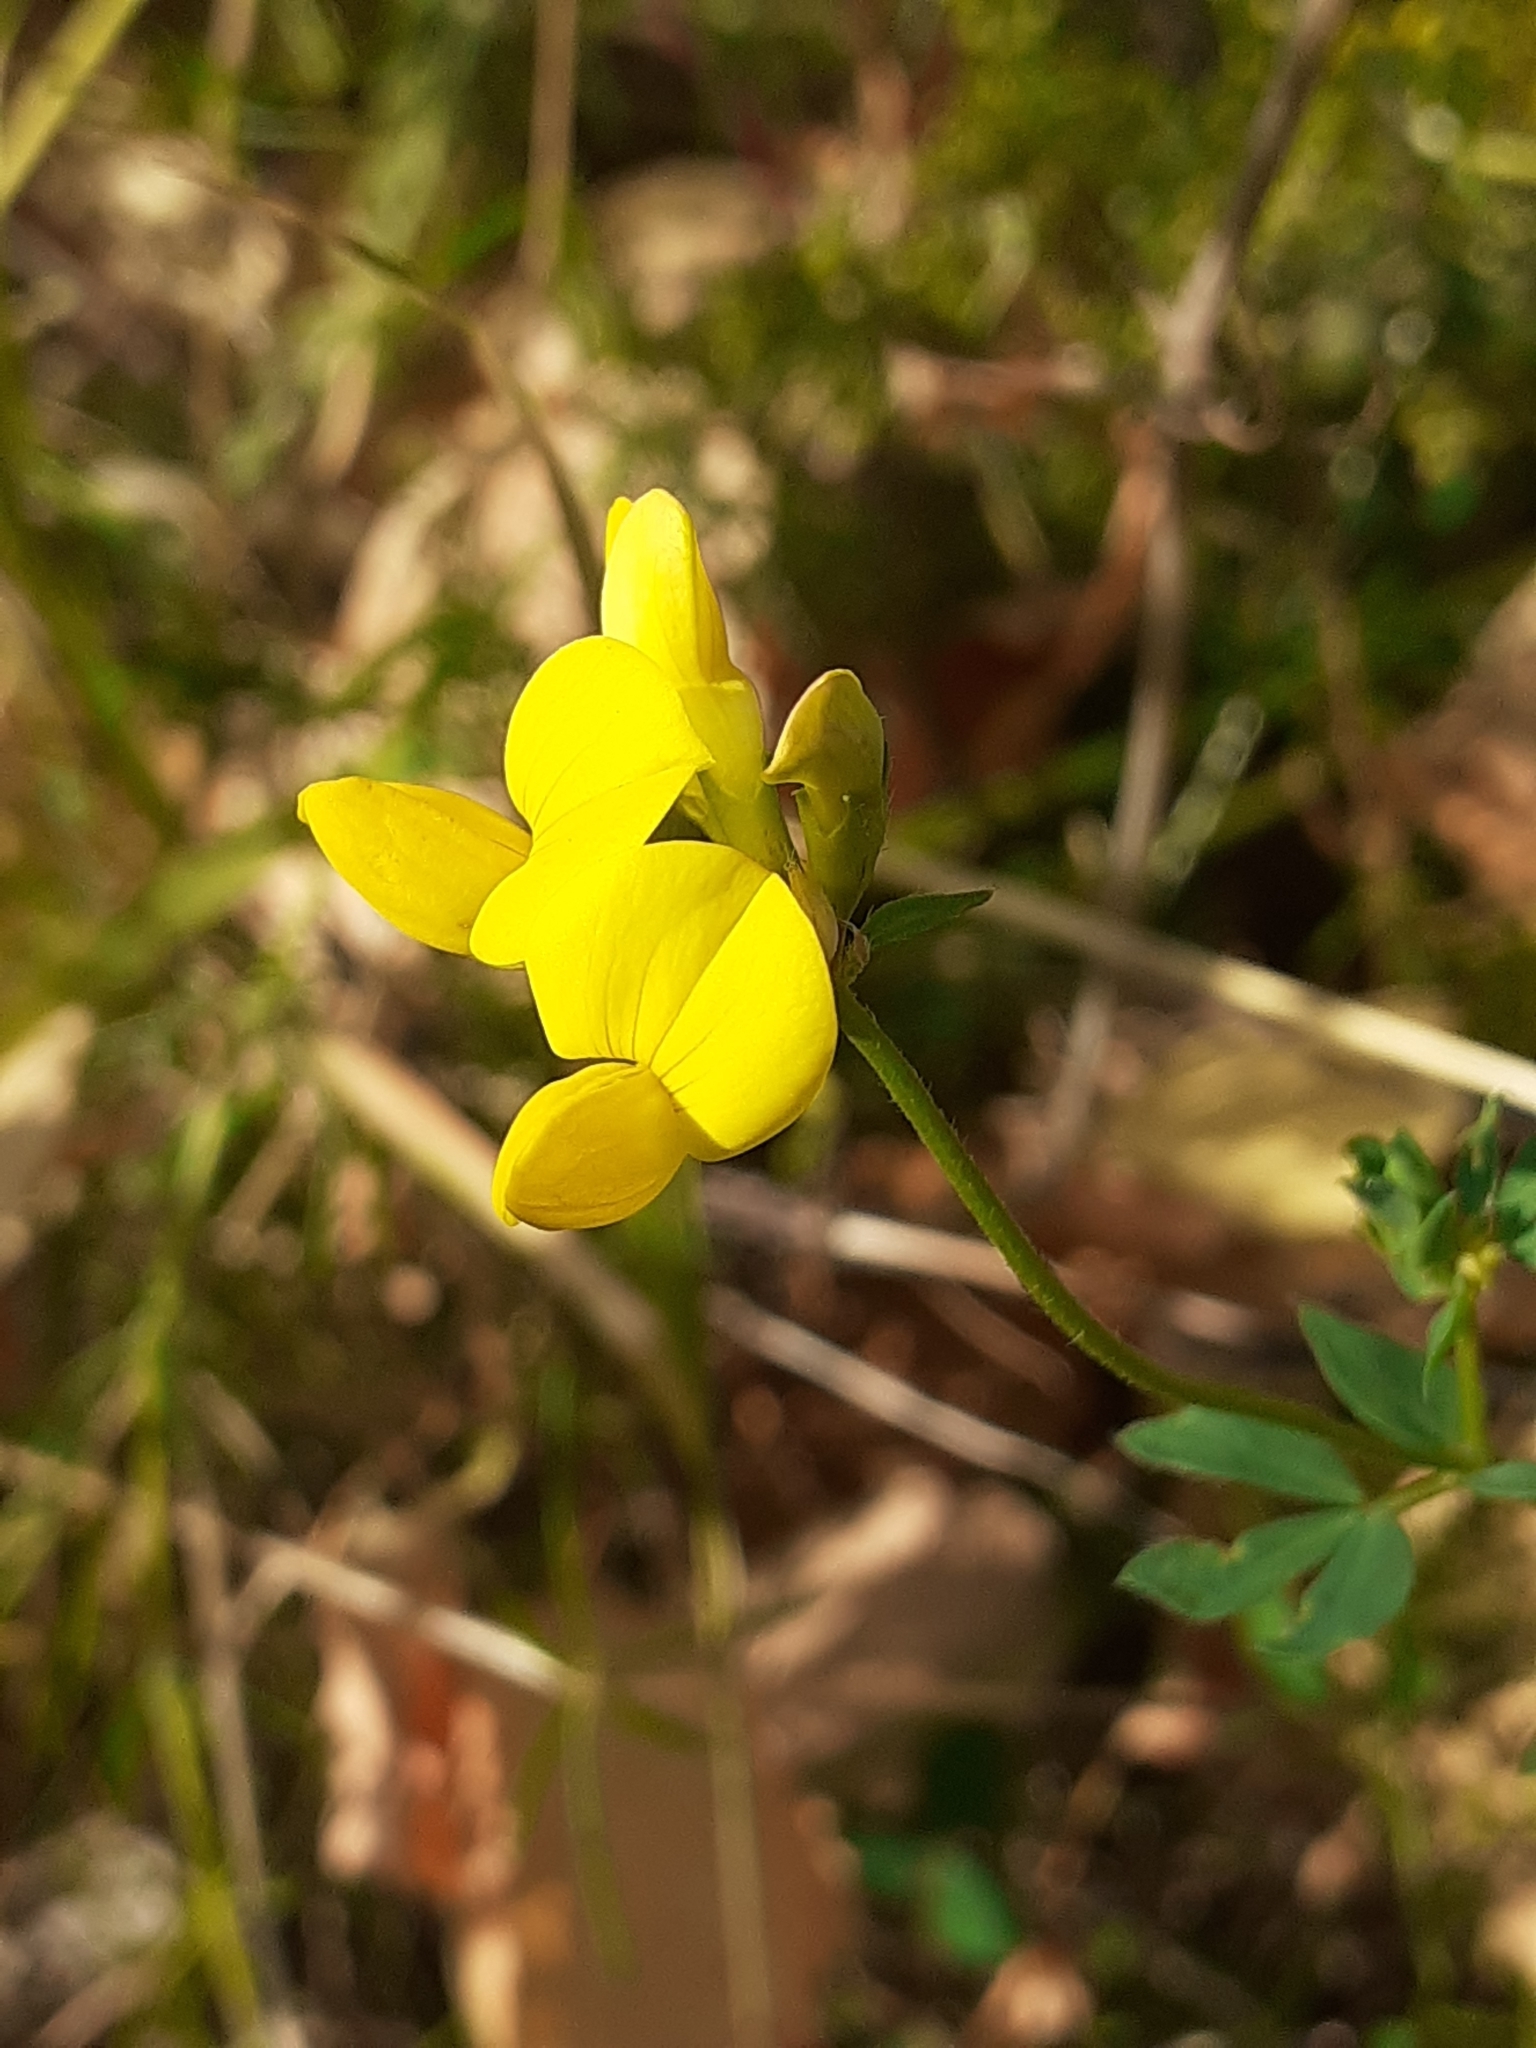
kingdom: Plantae
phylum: Tracheophyta
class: Magnoliopsida
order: Fabales
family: Fabaceae
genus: Lotus
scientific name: Lotus corniculatus
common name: Common bird's-foot-trefoil
